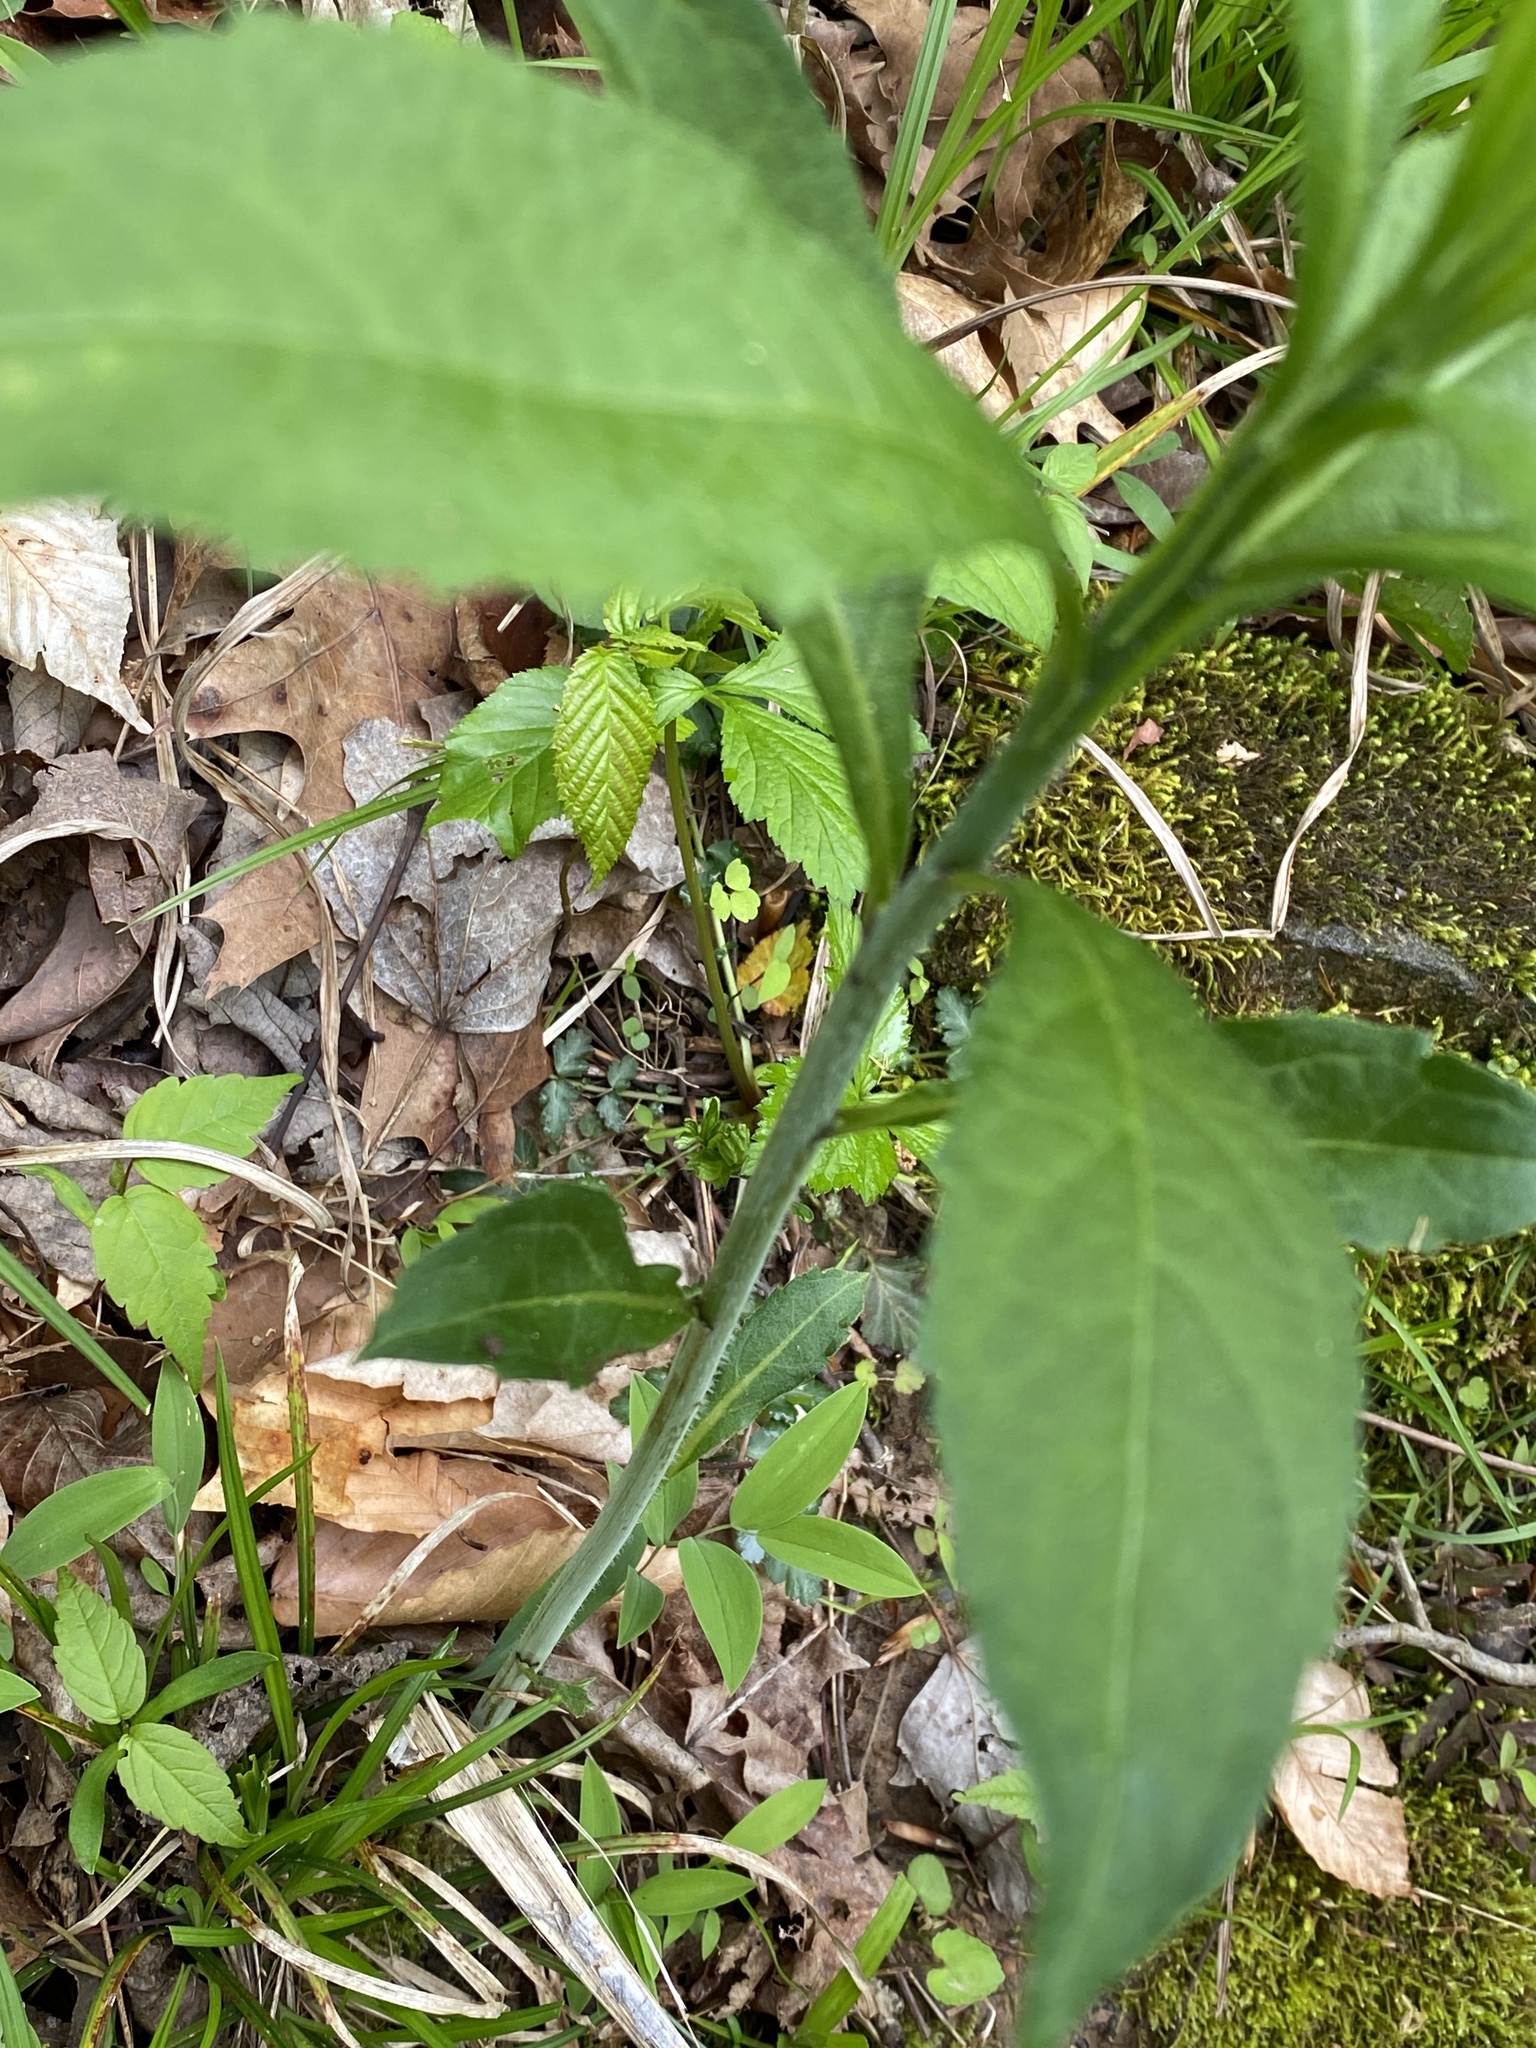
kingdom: Plantae
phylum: Tracheophyta
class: Magnoliopsida
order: Malpighiales
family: Violaceae
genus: Cubelium
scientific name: Cubelium concolor
